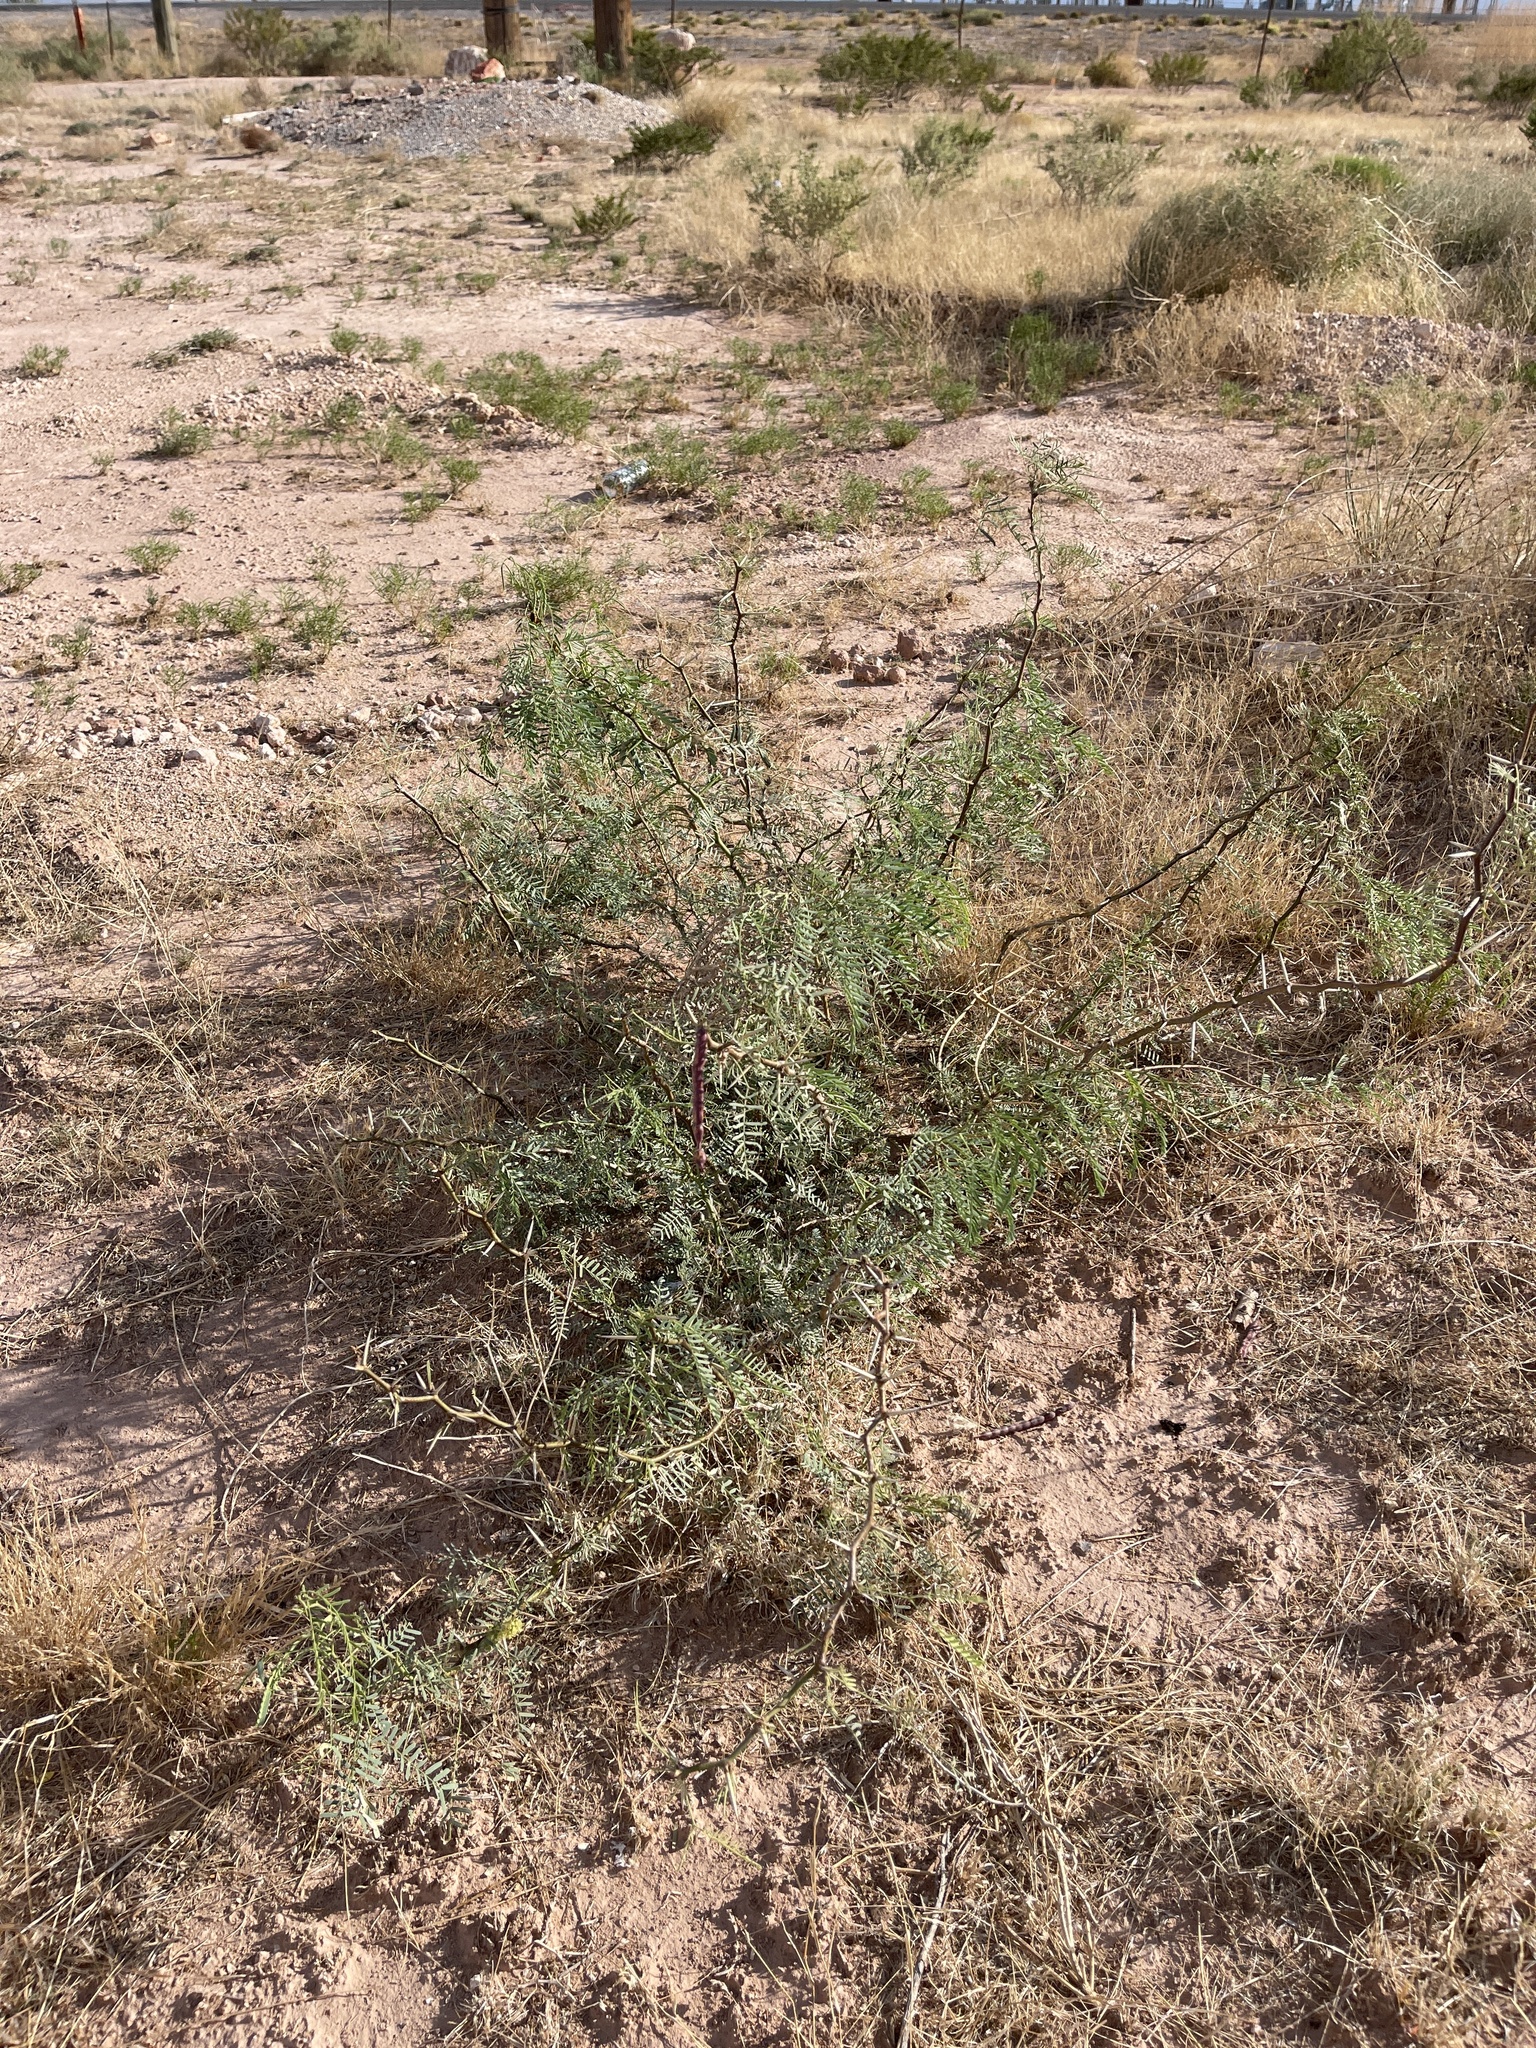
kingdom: Plantae
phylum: Tracheophyta
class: Magnoliopsida
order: Fabales
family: Fabaceae
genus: Prosopis
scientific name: Prosopis glandulosa
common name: Honey mesquite
